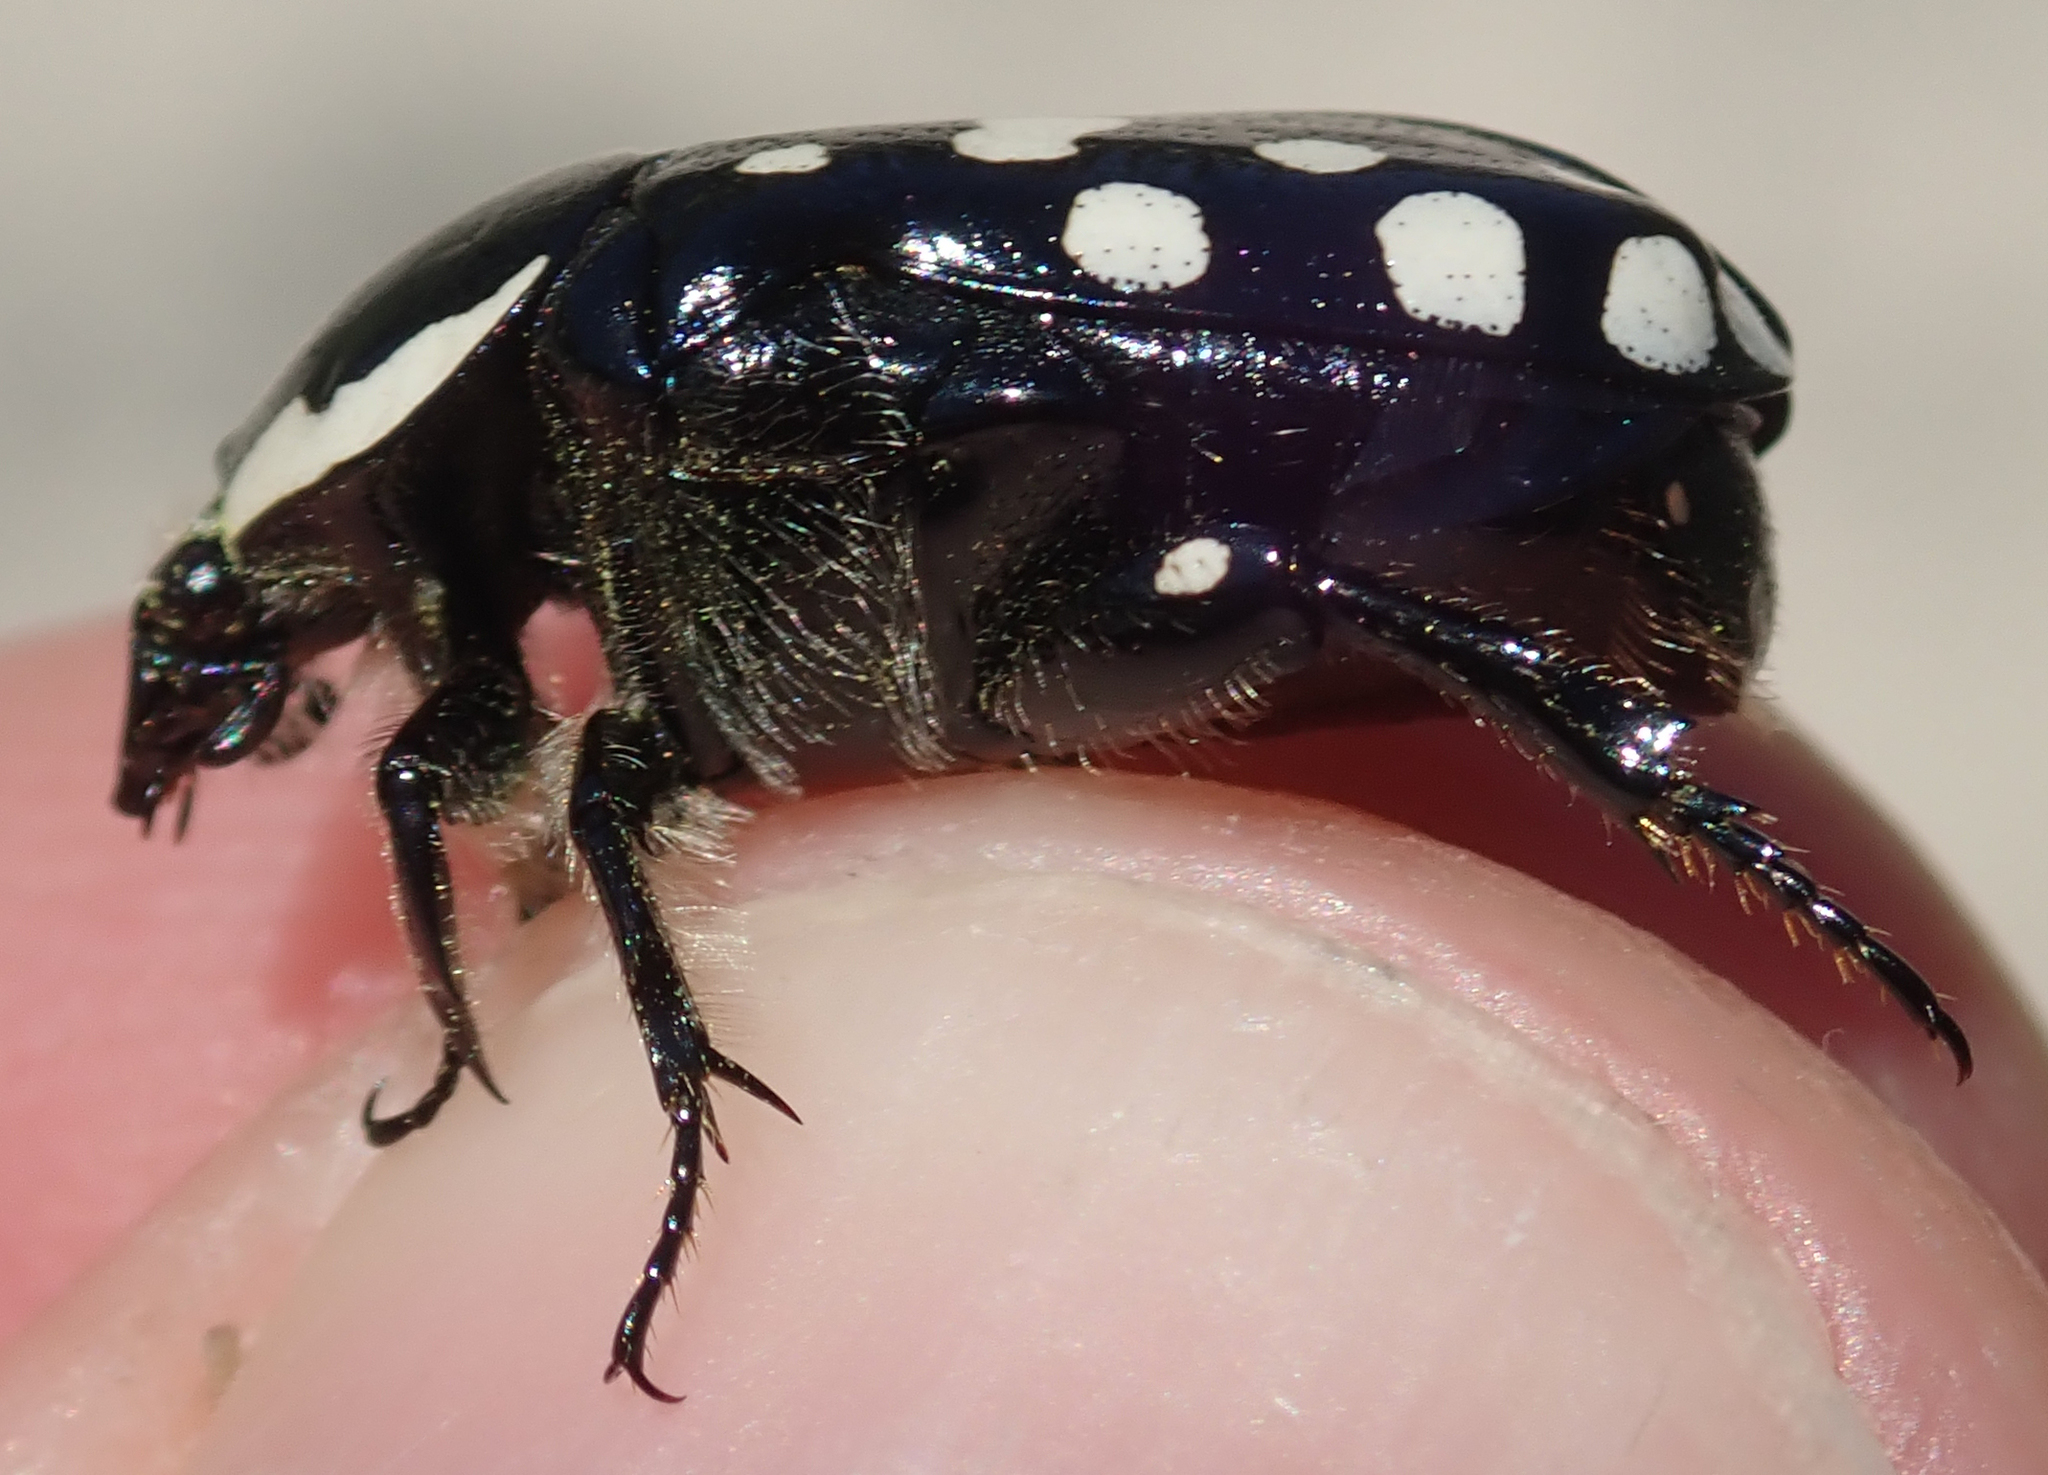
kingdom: Animalia
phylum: Arthropoda
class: Insecta
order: Coleoptera
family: Scarabaeidae
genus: Phoxomela
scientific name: Phoxomela umbrosa
